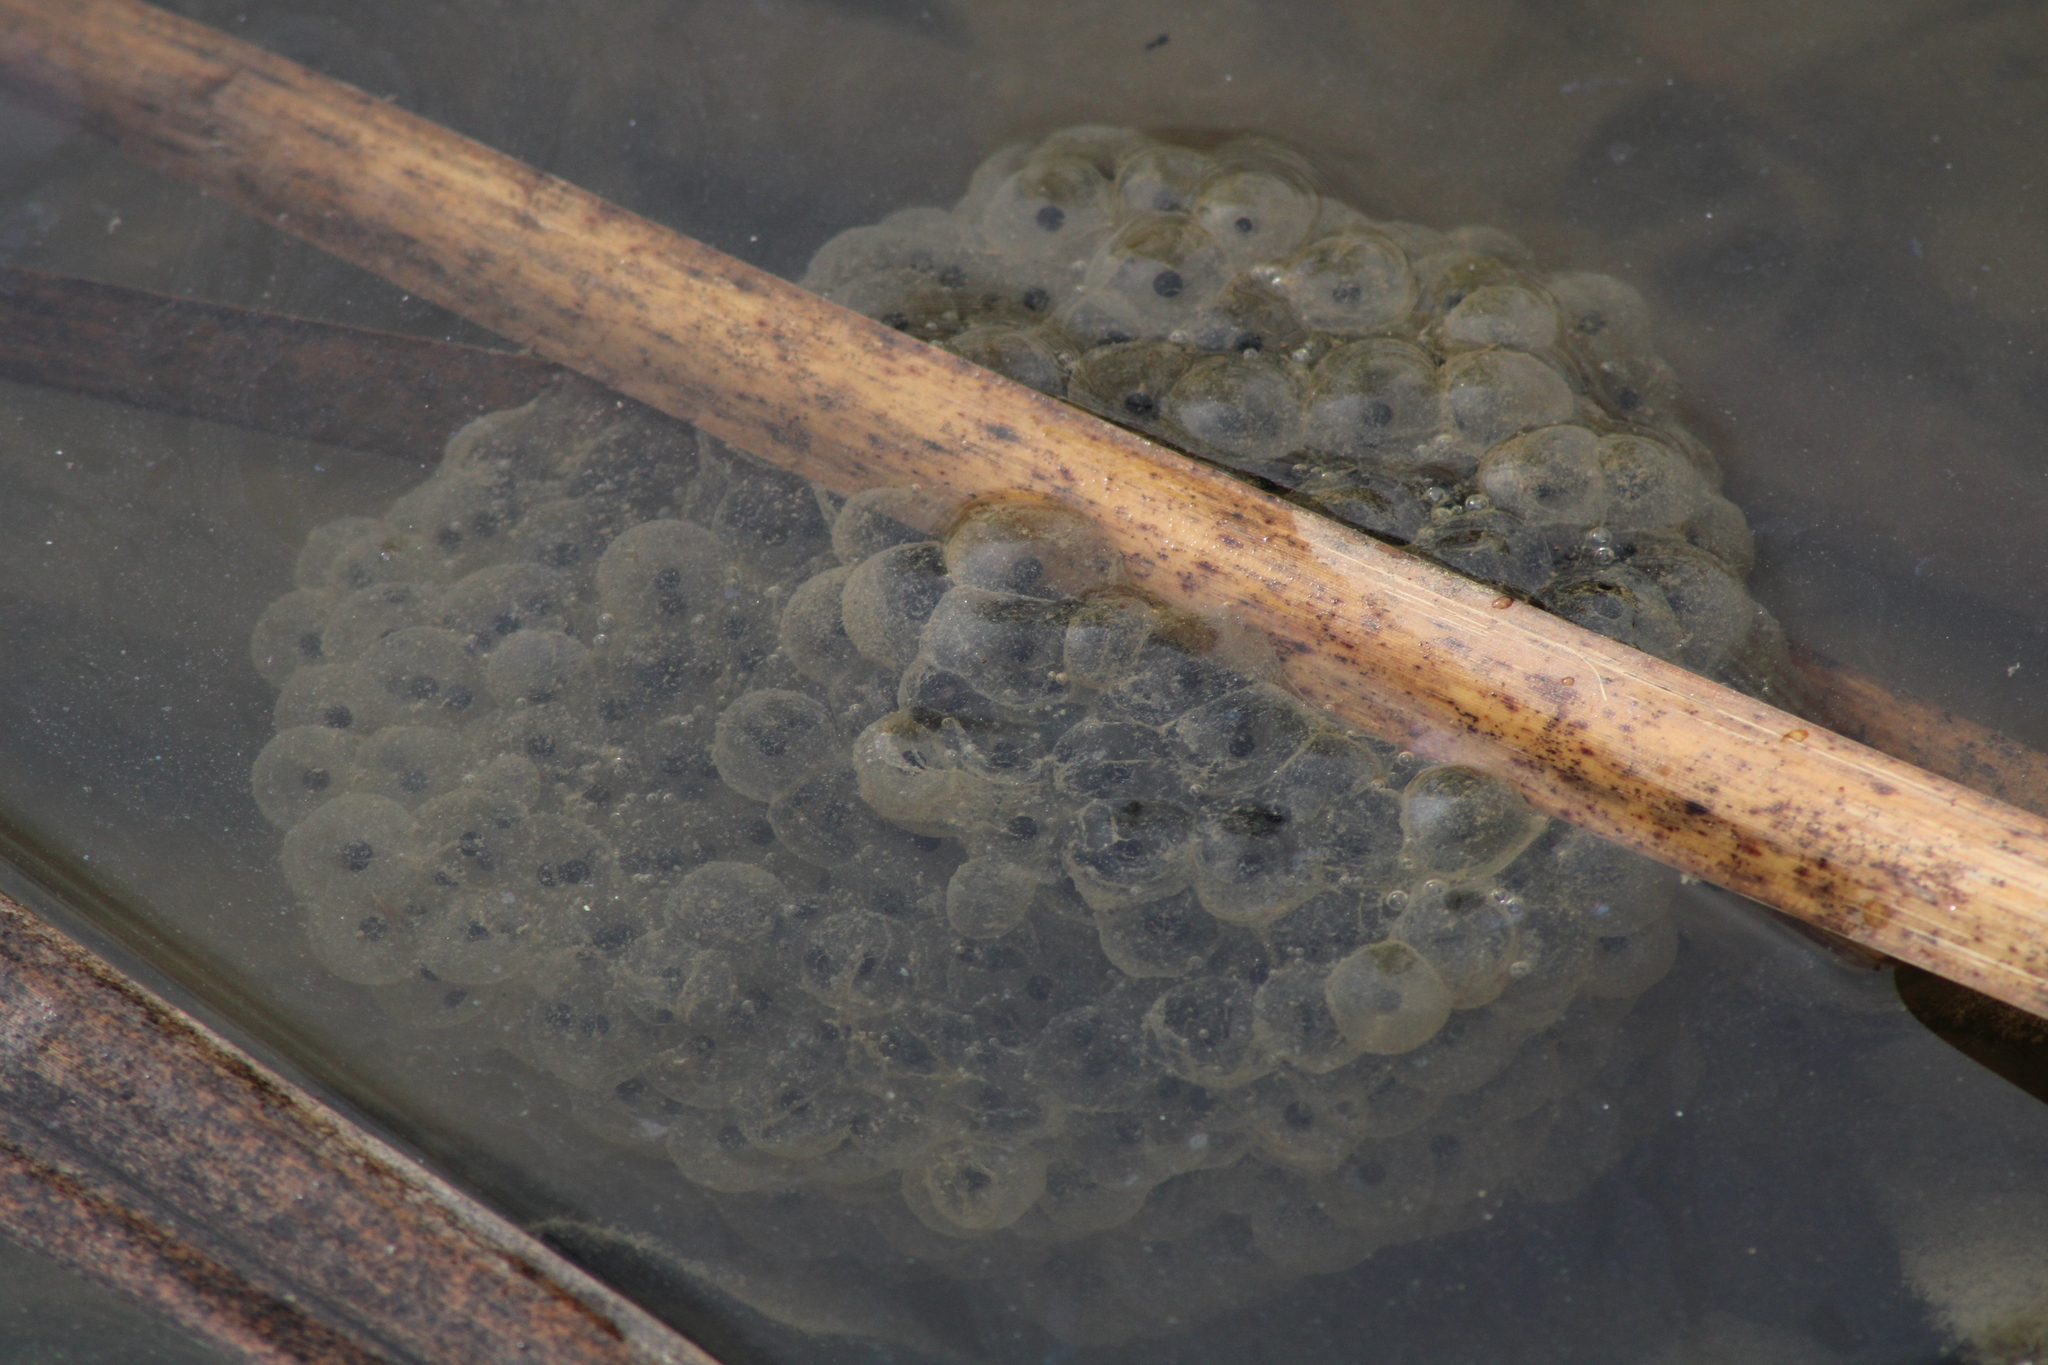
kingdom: Animalia
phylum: Chordata
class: Amphibia
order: Anura
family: Ranidae
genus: Rana
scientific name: Rana dalmatina
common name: Agile frog
